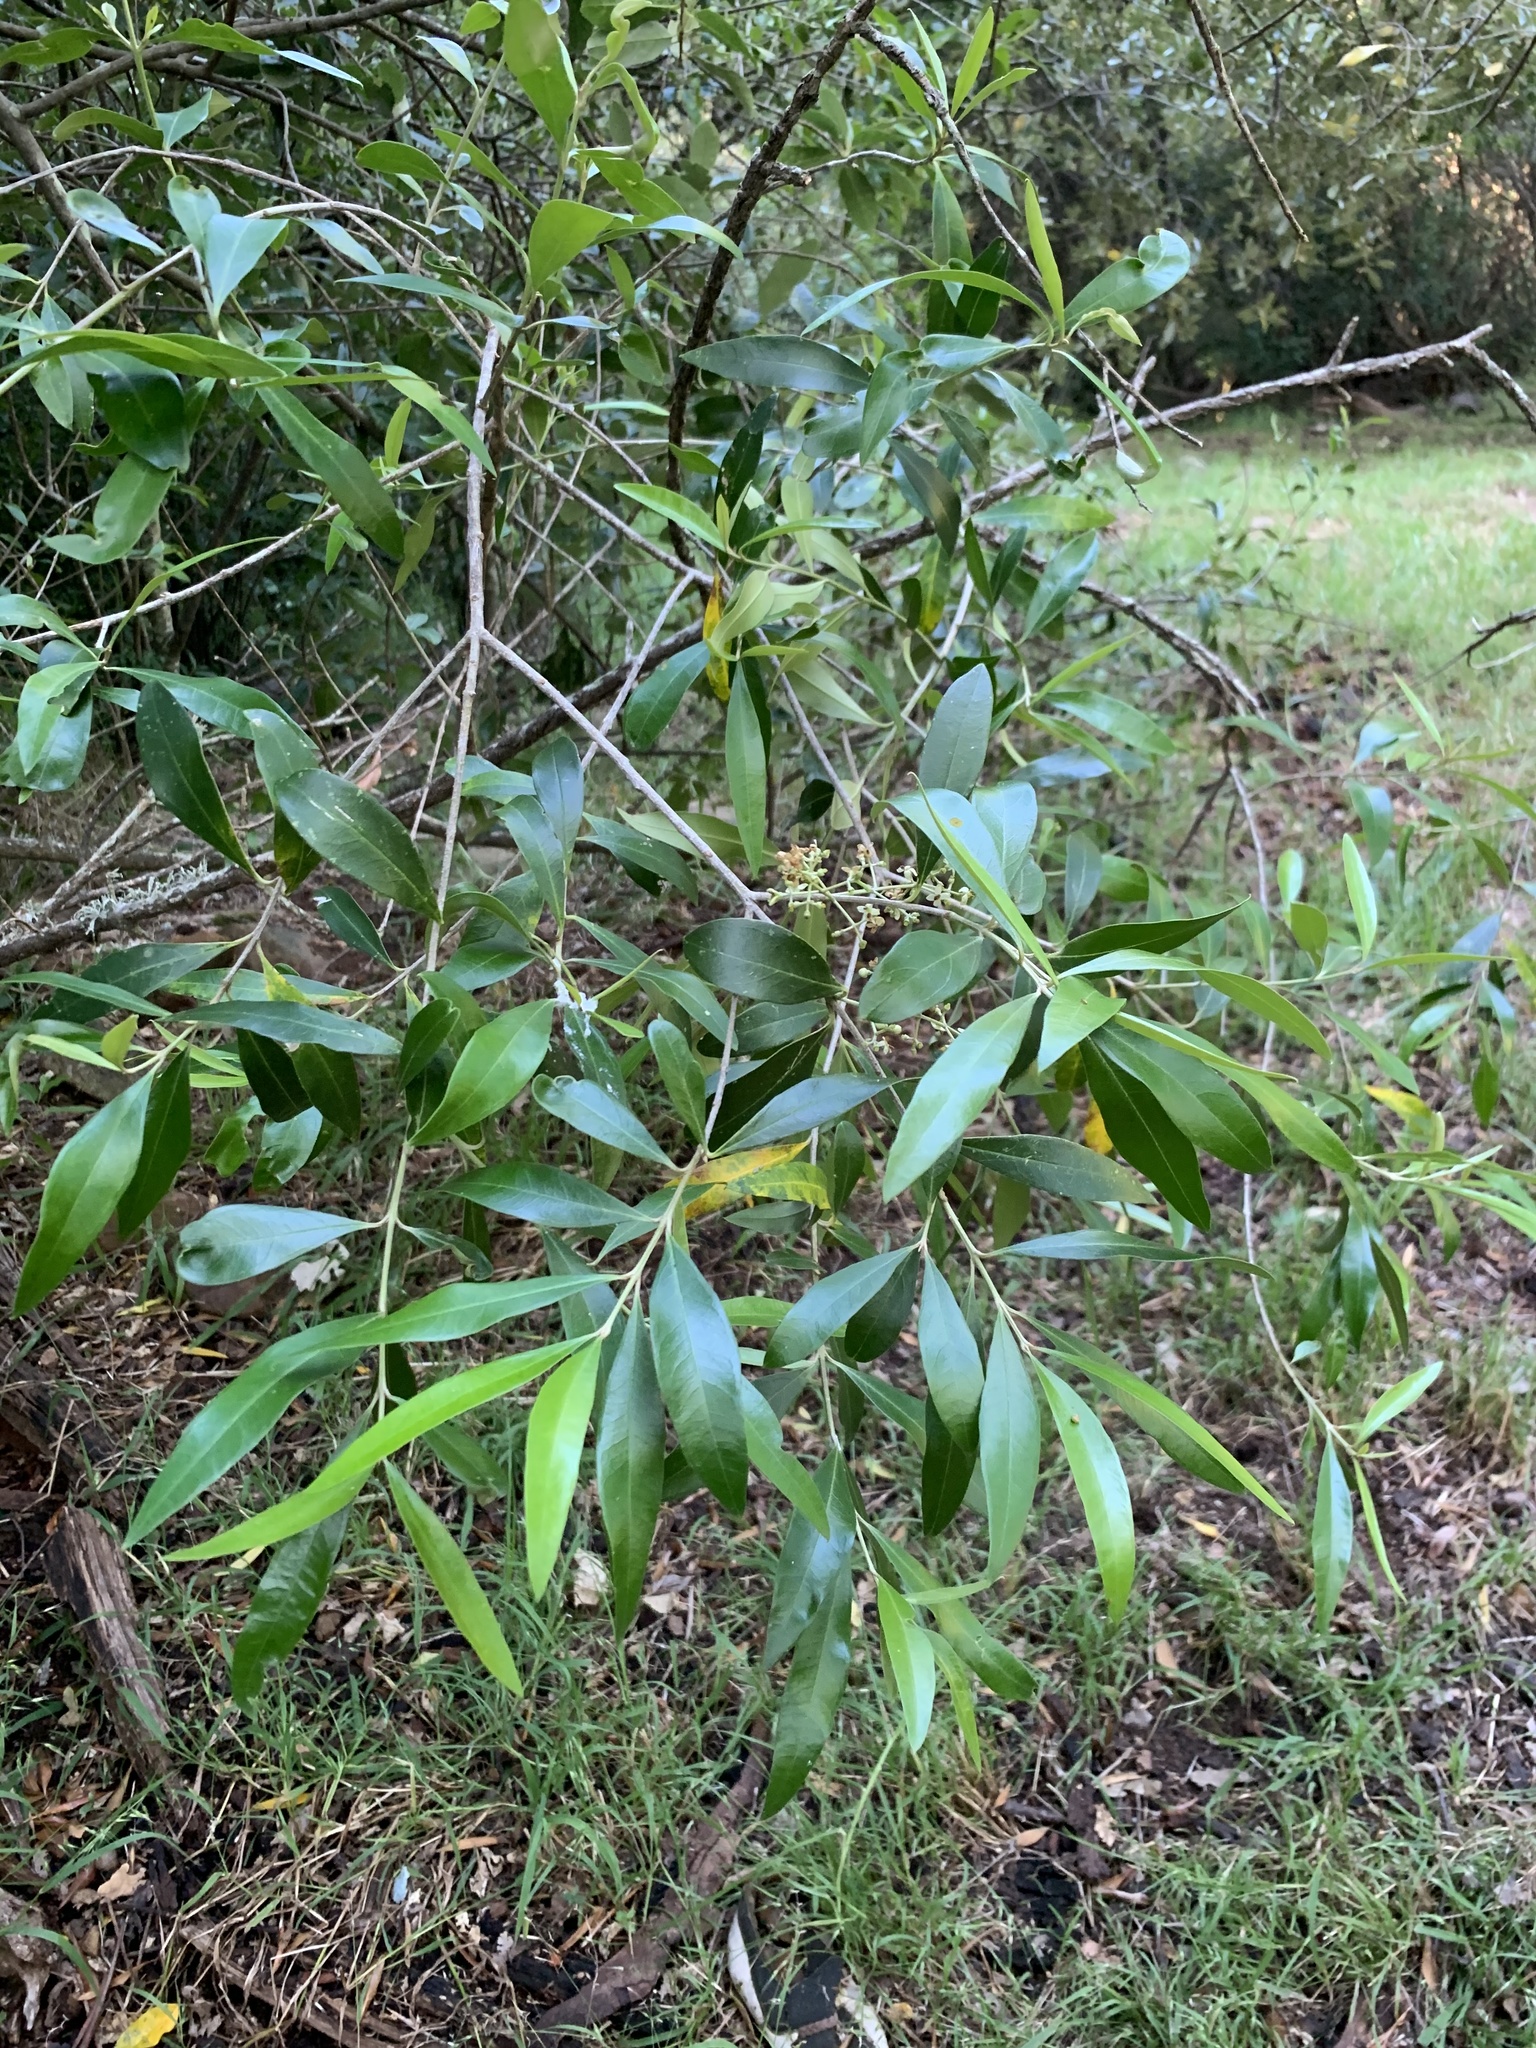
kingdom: Plantae
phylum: Tracheophyta
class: Magnoliopsida
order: Lamiales
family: Oleaceae
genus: Olea
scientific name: Olea europaea
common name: Olive
